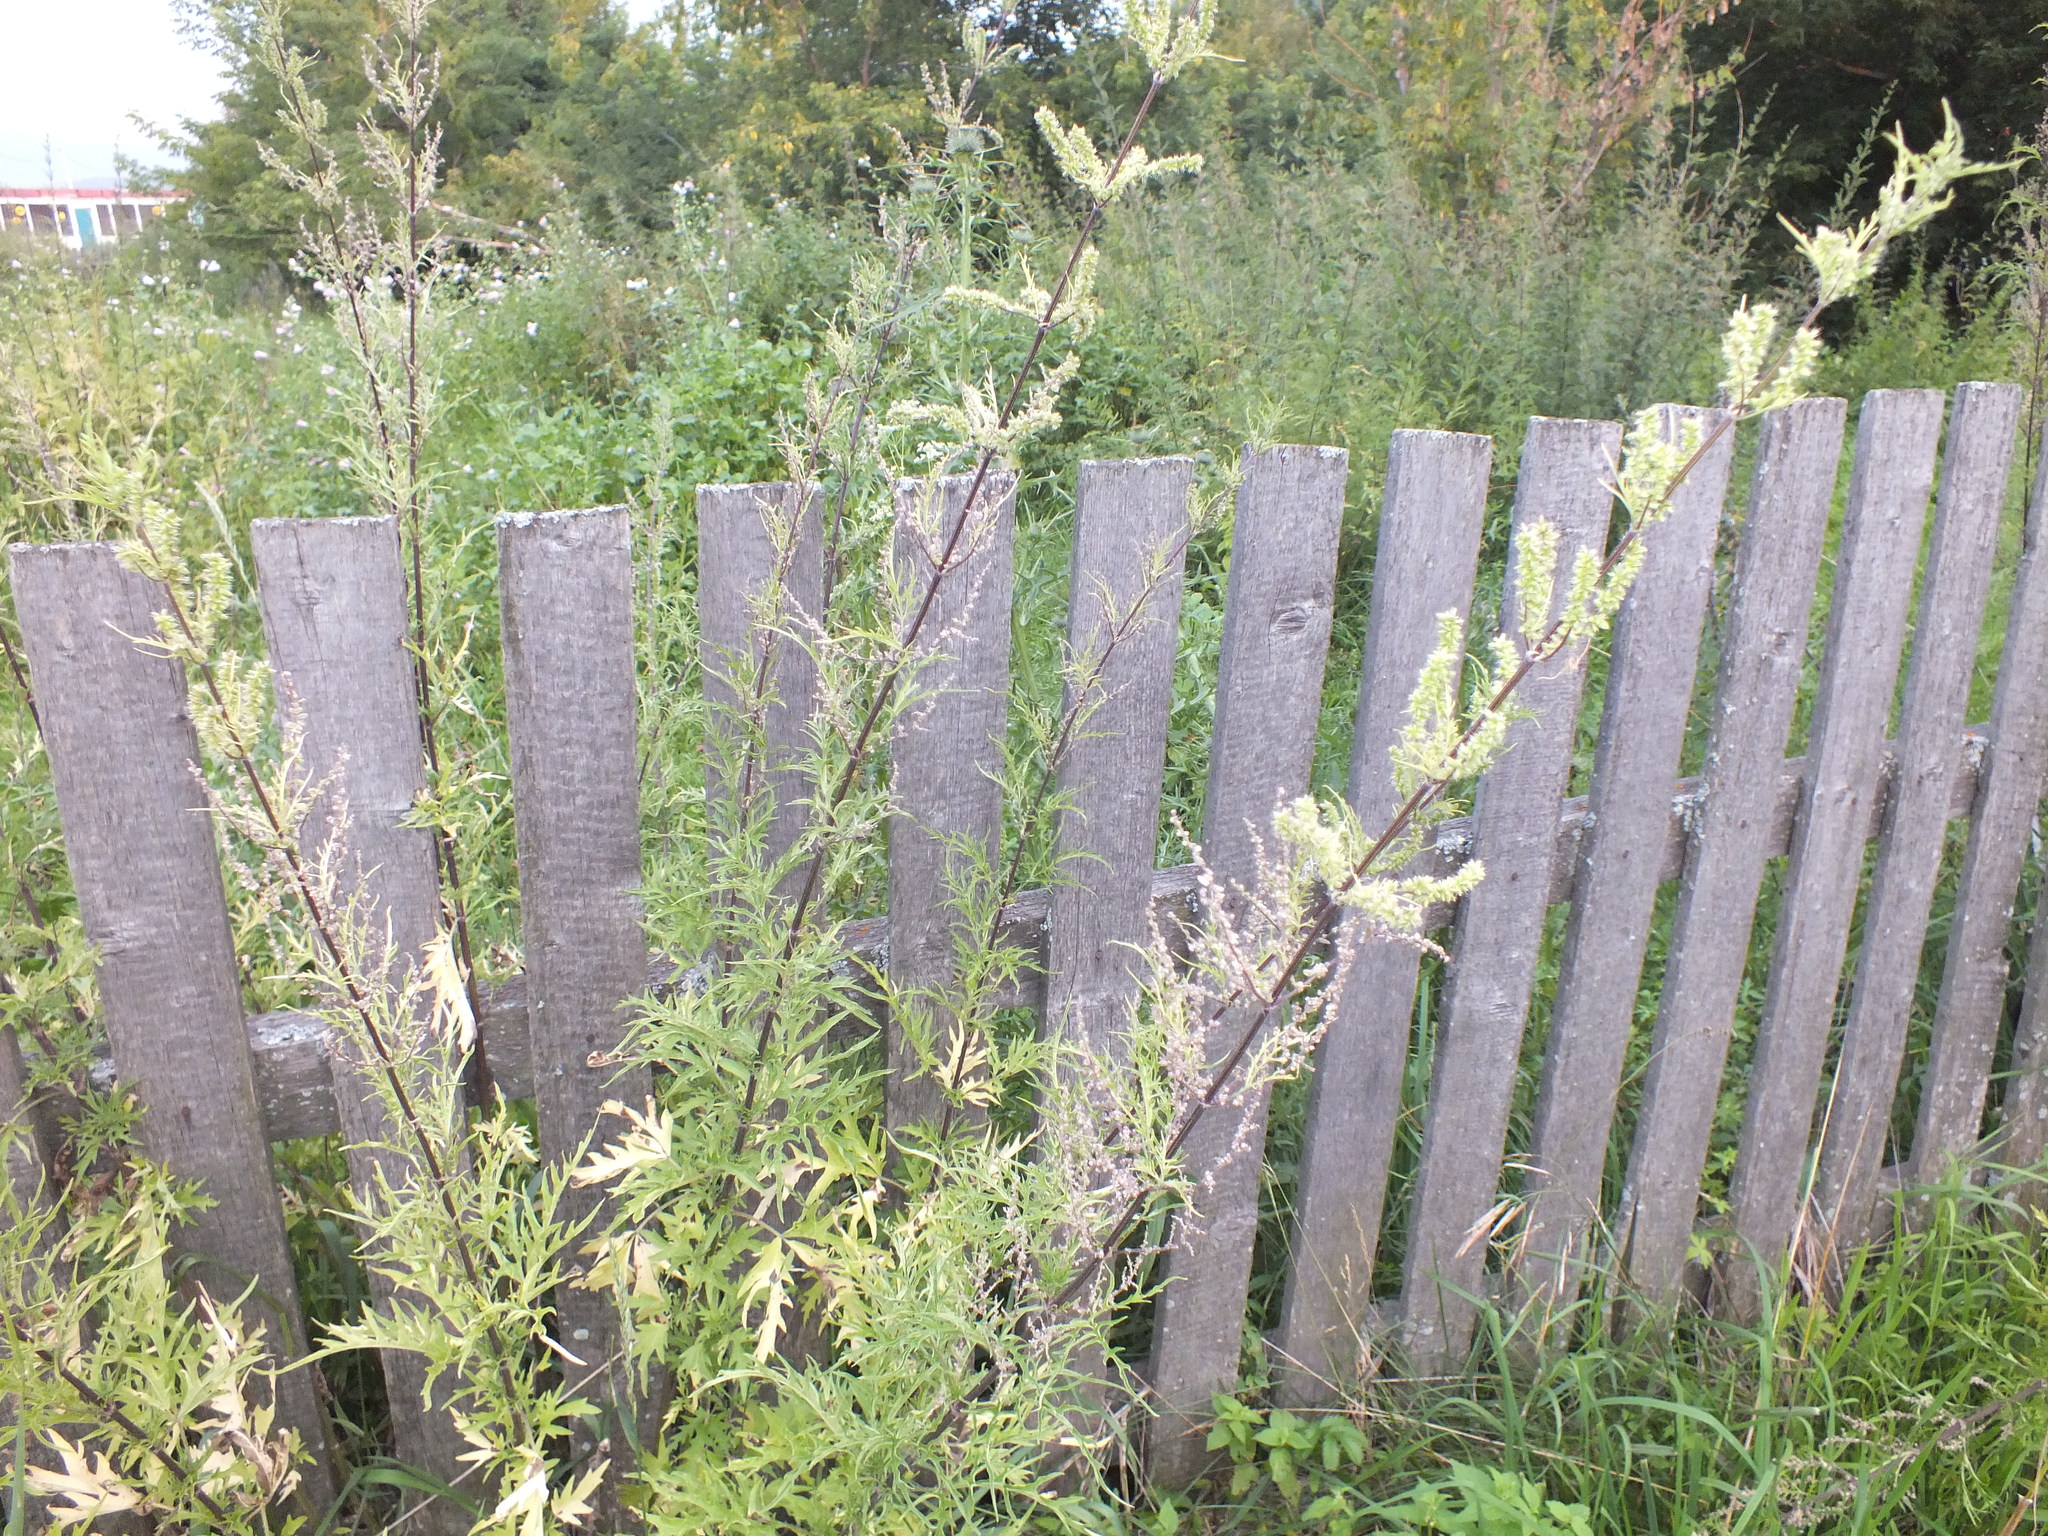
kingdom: Plantae
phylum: Tracheophyta
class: Magnoliopsida
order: Rosales
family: Urticaceae
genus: Urtica
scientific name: Urtica cannabina
